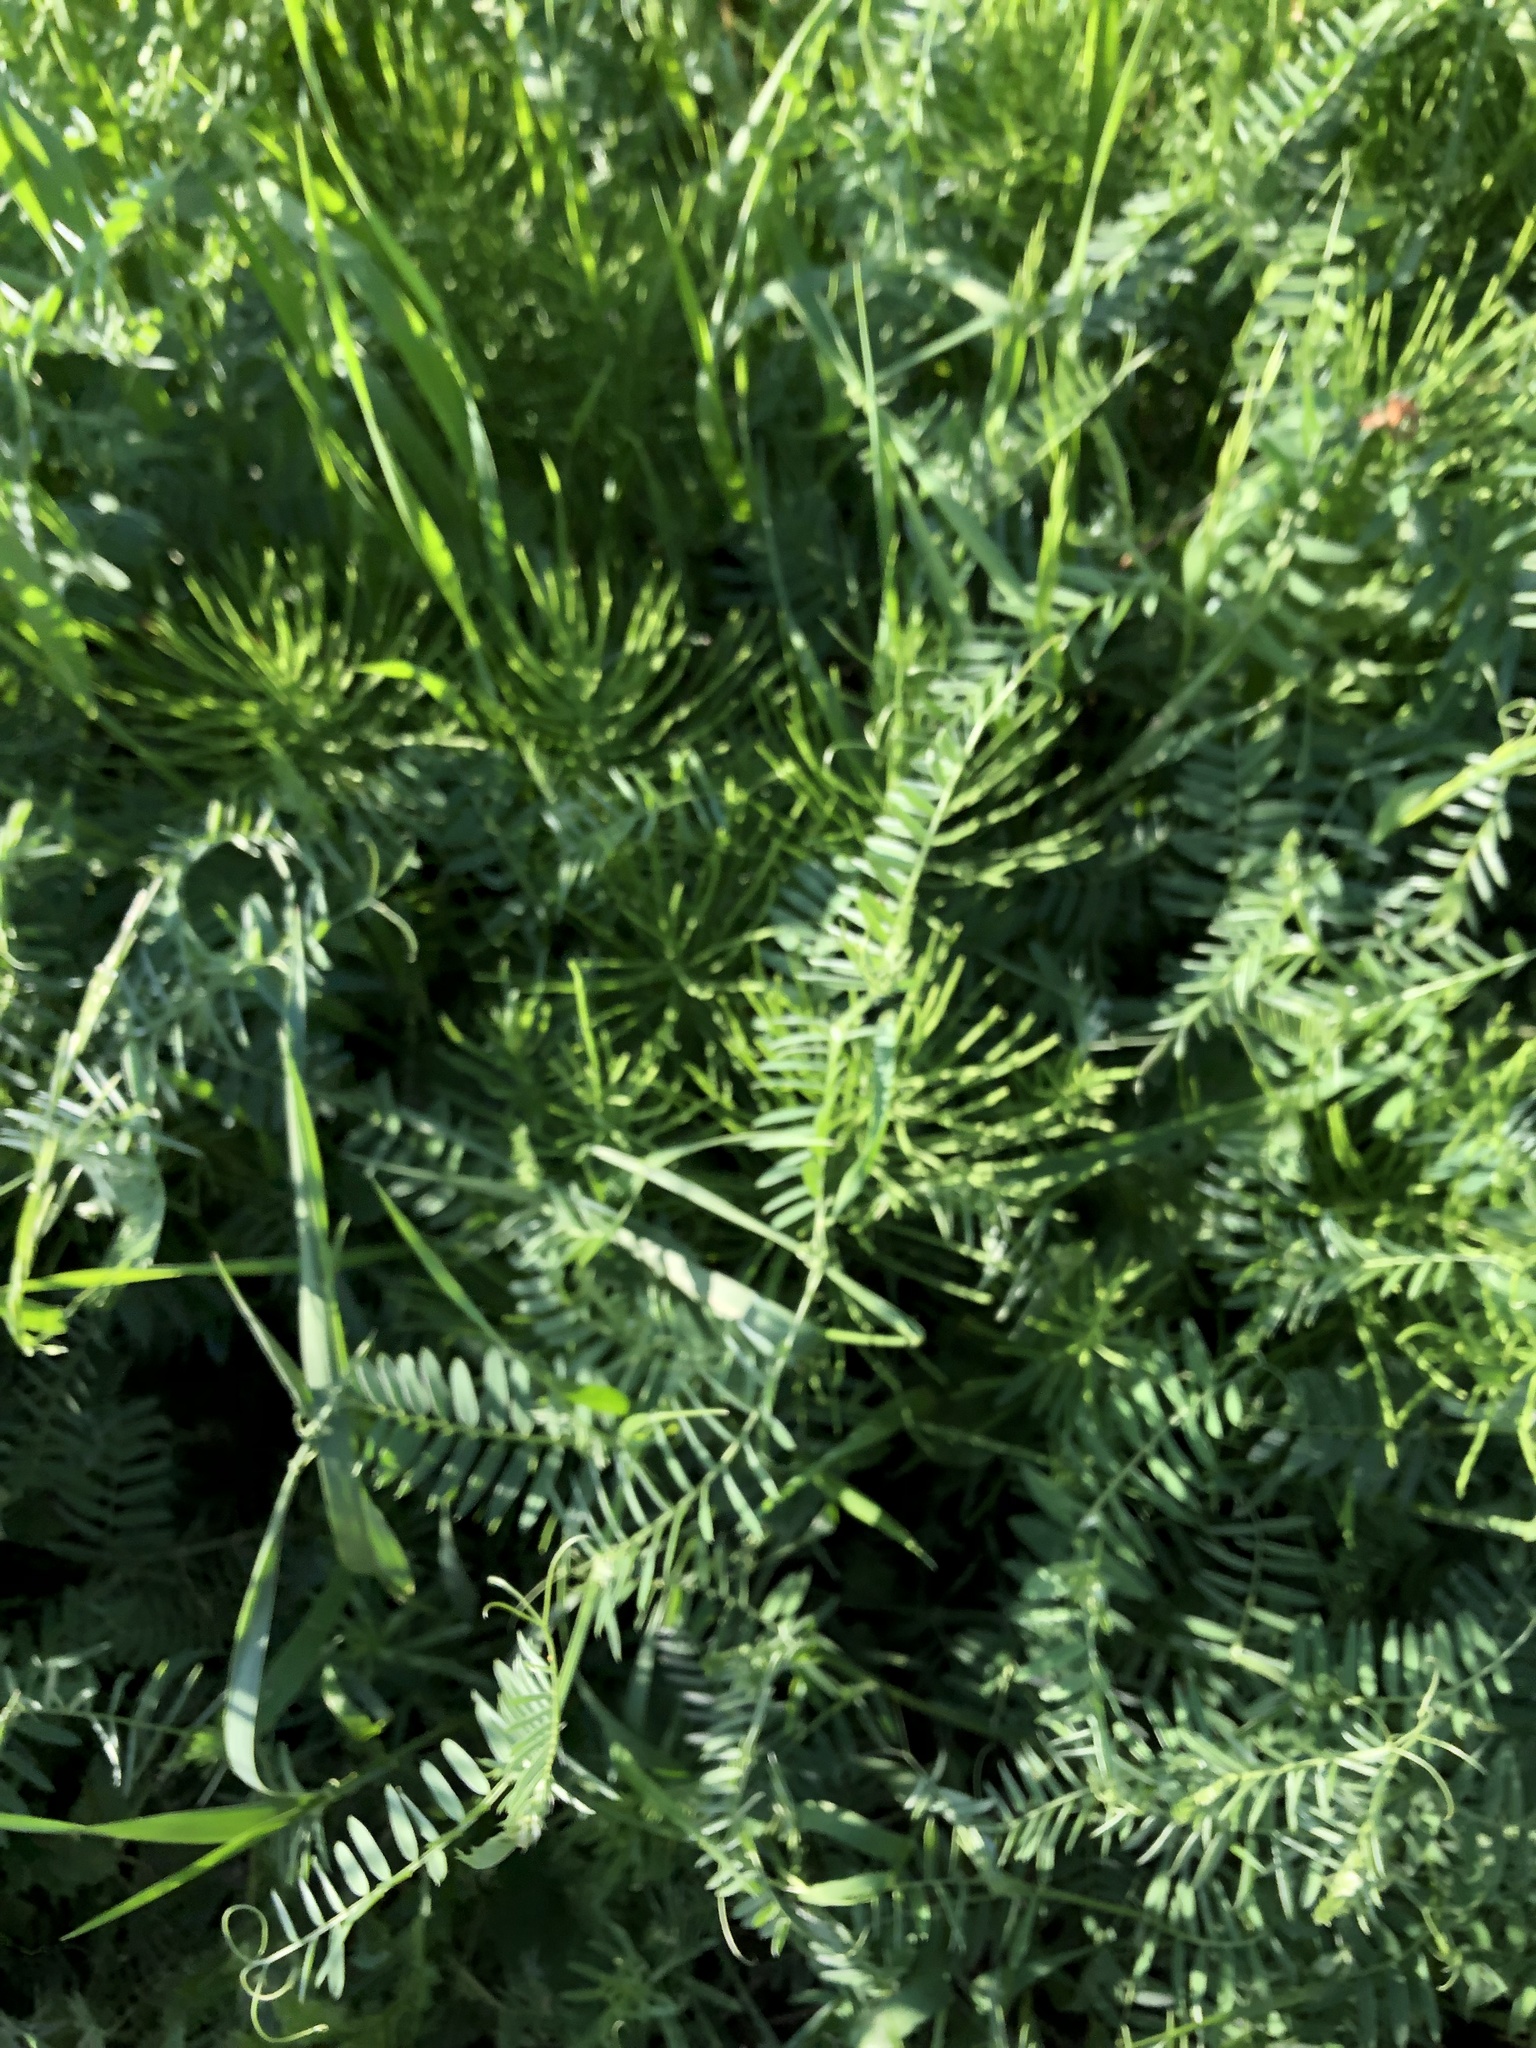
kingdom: Plantae
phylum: Tracheophyta
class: Magnoliopsida
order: Fabales
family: Fabaceae
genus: Vicia
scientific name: Vicia cracca
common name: Bird vetch
